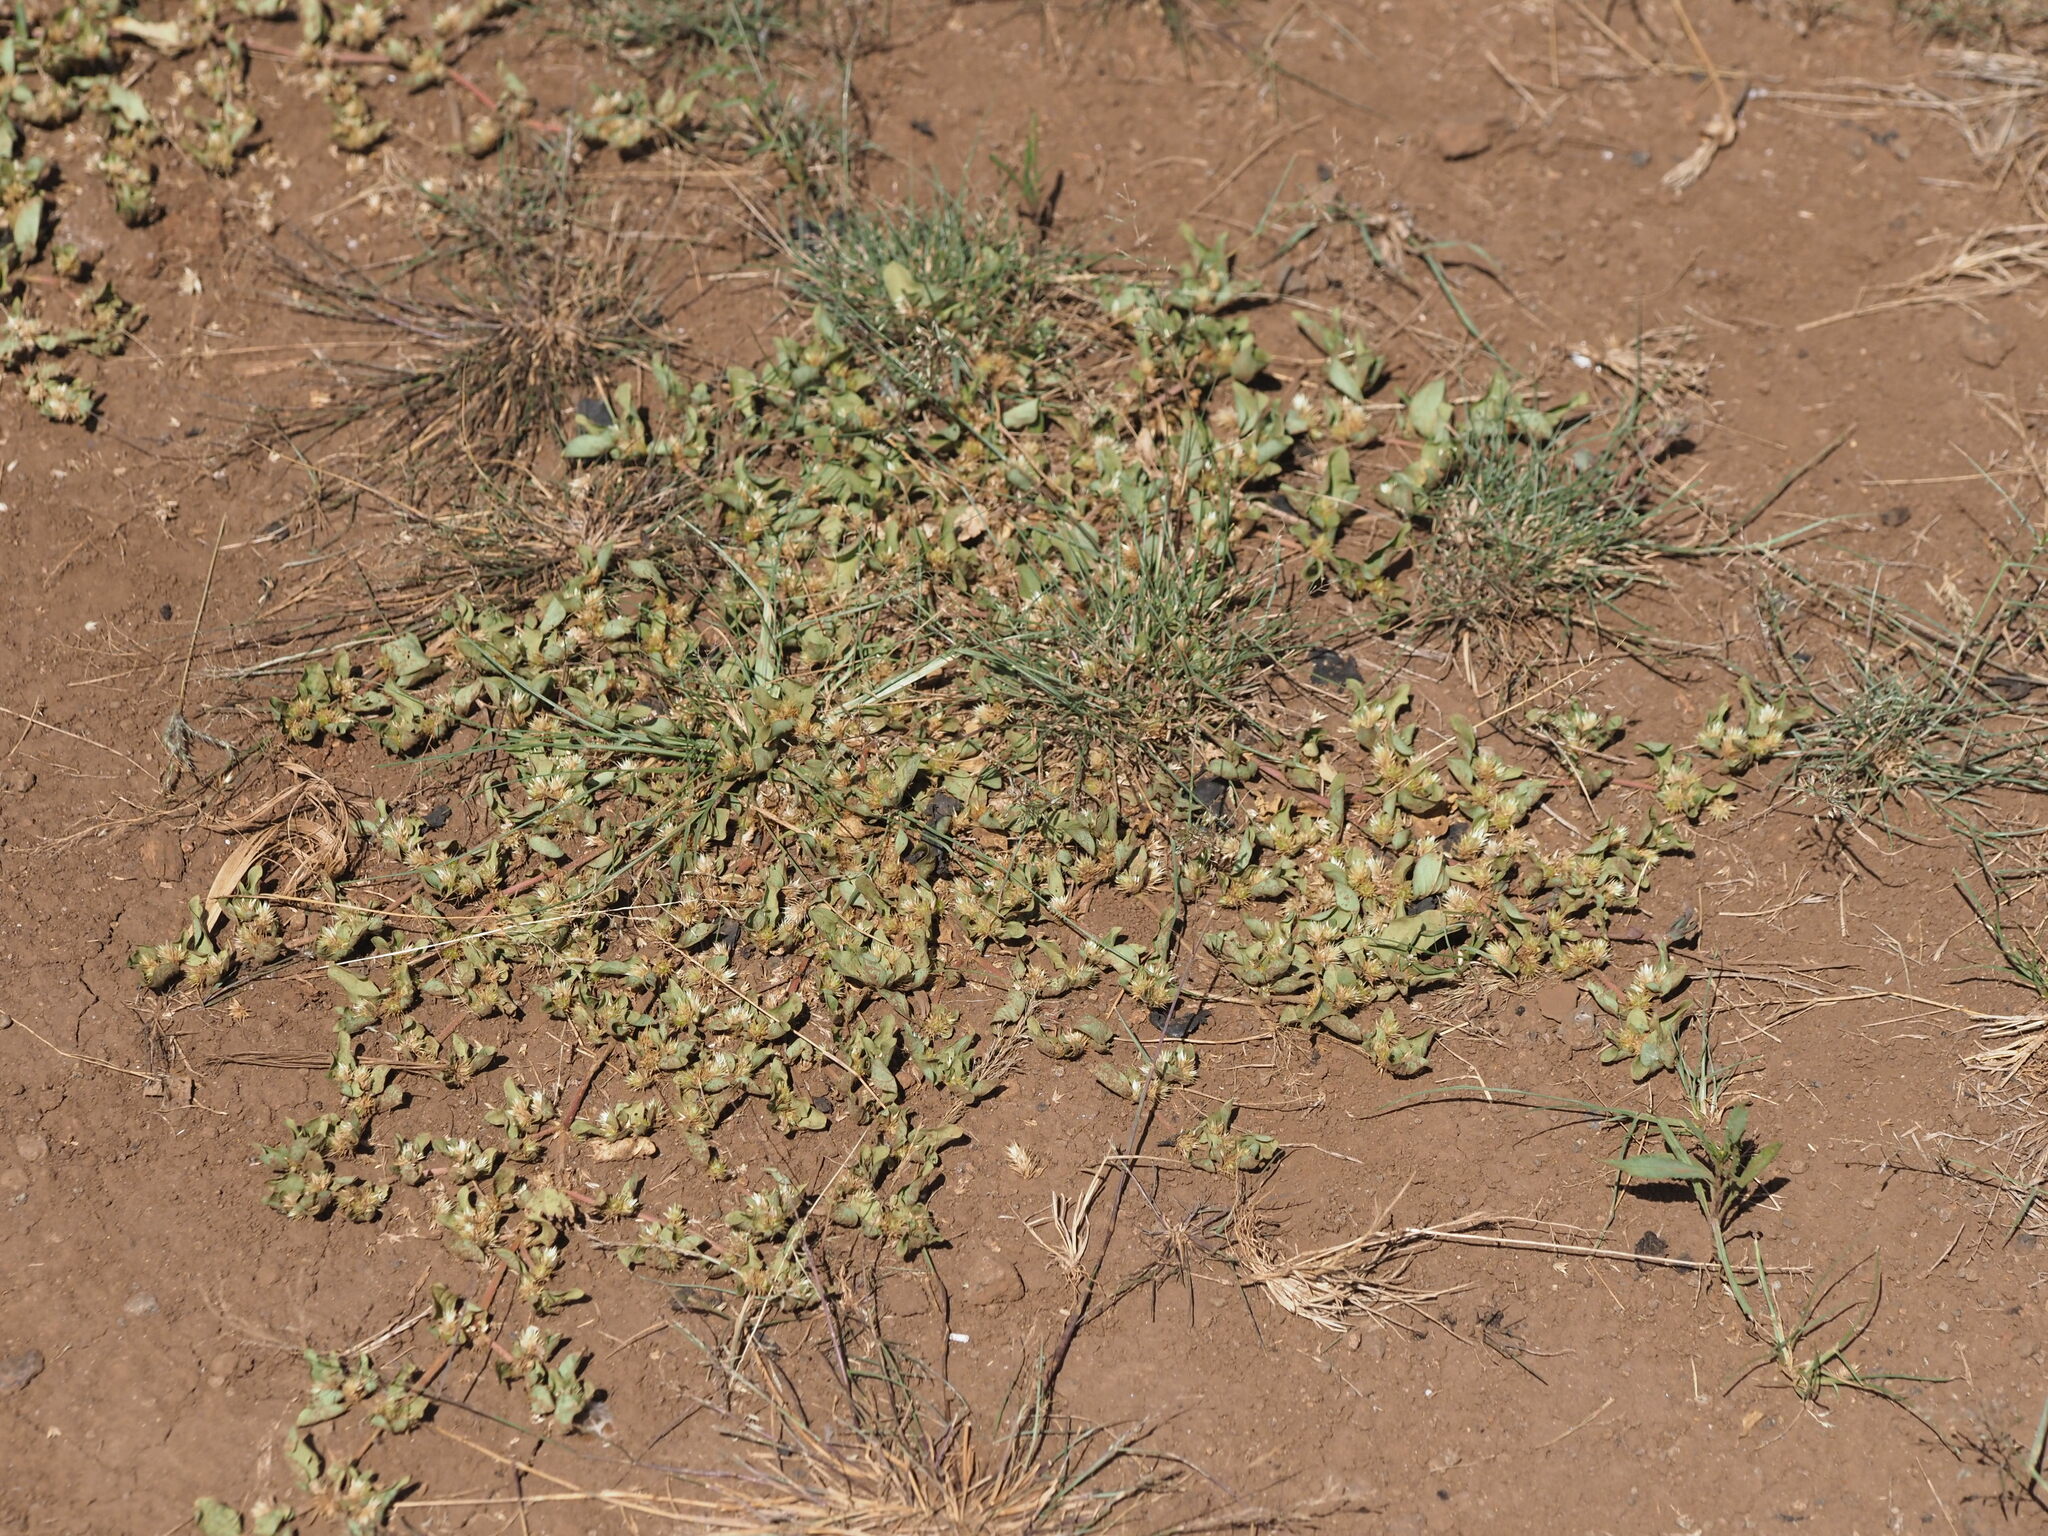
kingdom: Plantae
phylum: Tracheophyta
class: Magnoliopsida
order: Caryophyllales
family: Amaranthaceae
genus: Alternanthera
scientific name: Alternanthera pungens
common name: Khakiweed
